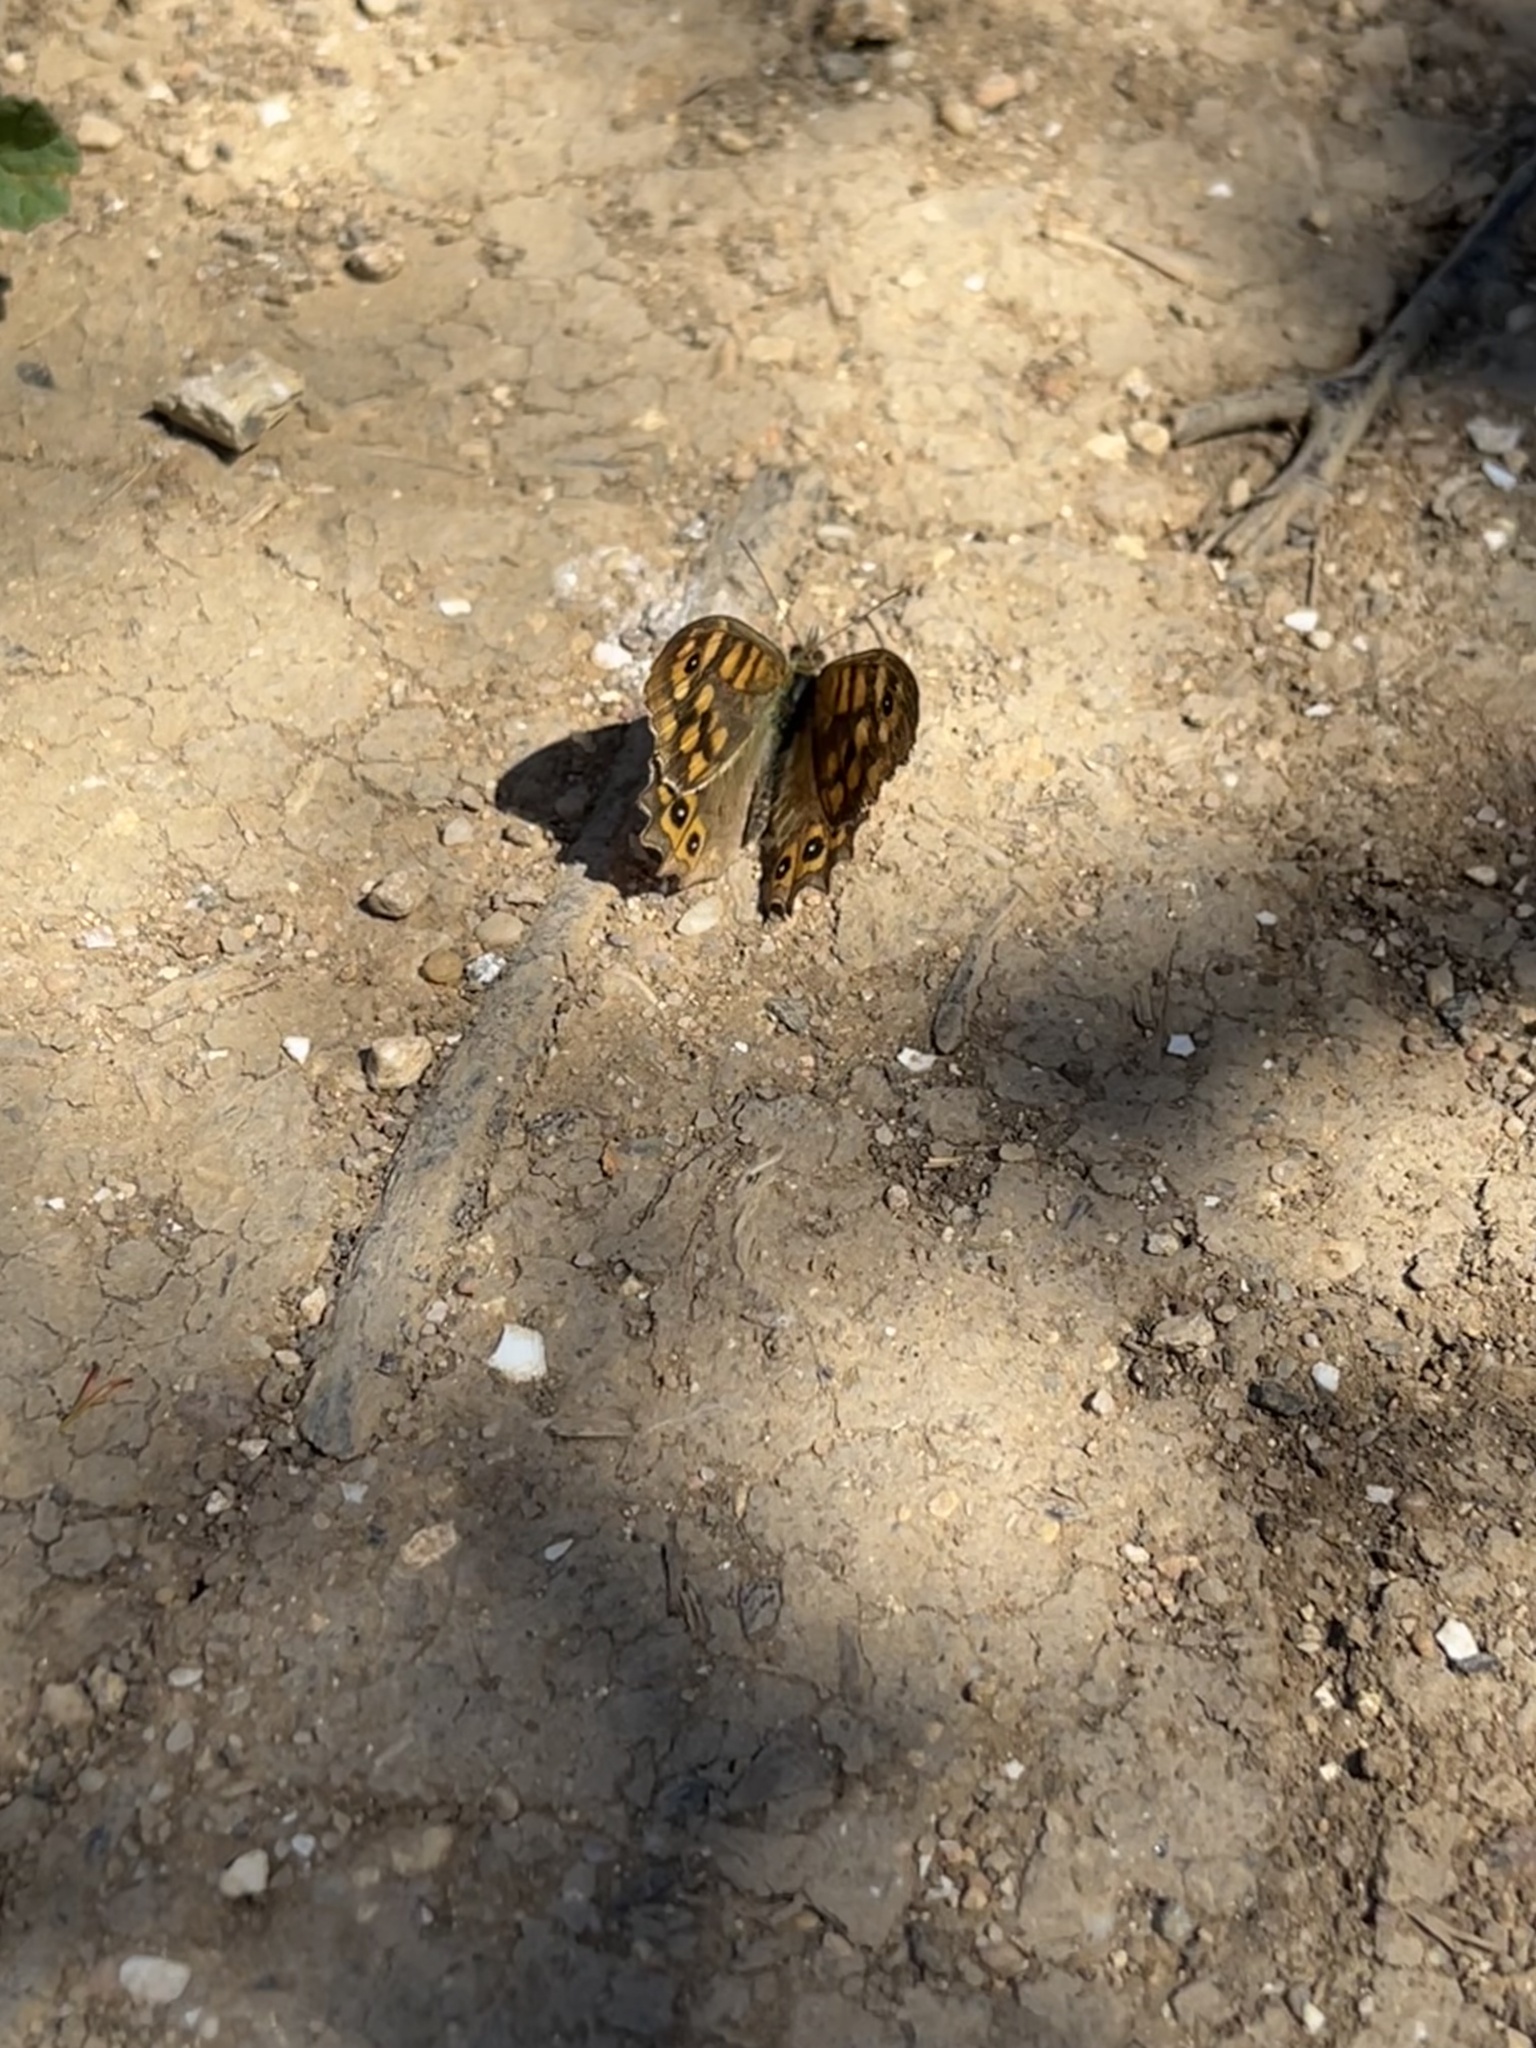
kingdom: Animalia
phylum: Arthropoda
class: Insecta
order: Lepidoptera
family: Nymphalidae
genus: Pararge
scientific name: Pararge aegeria
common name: Speckled wood
